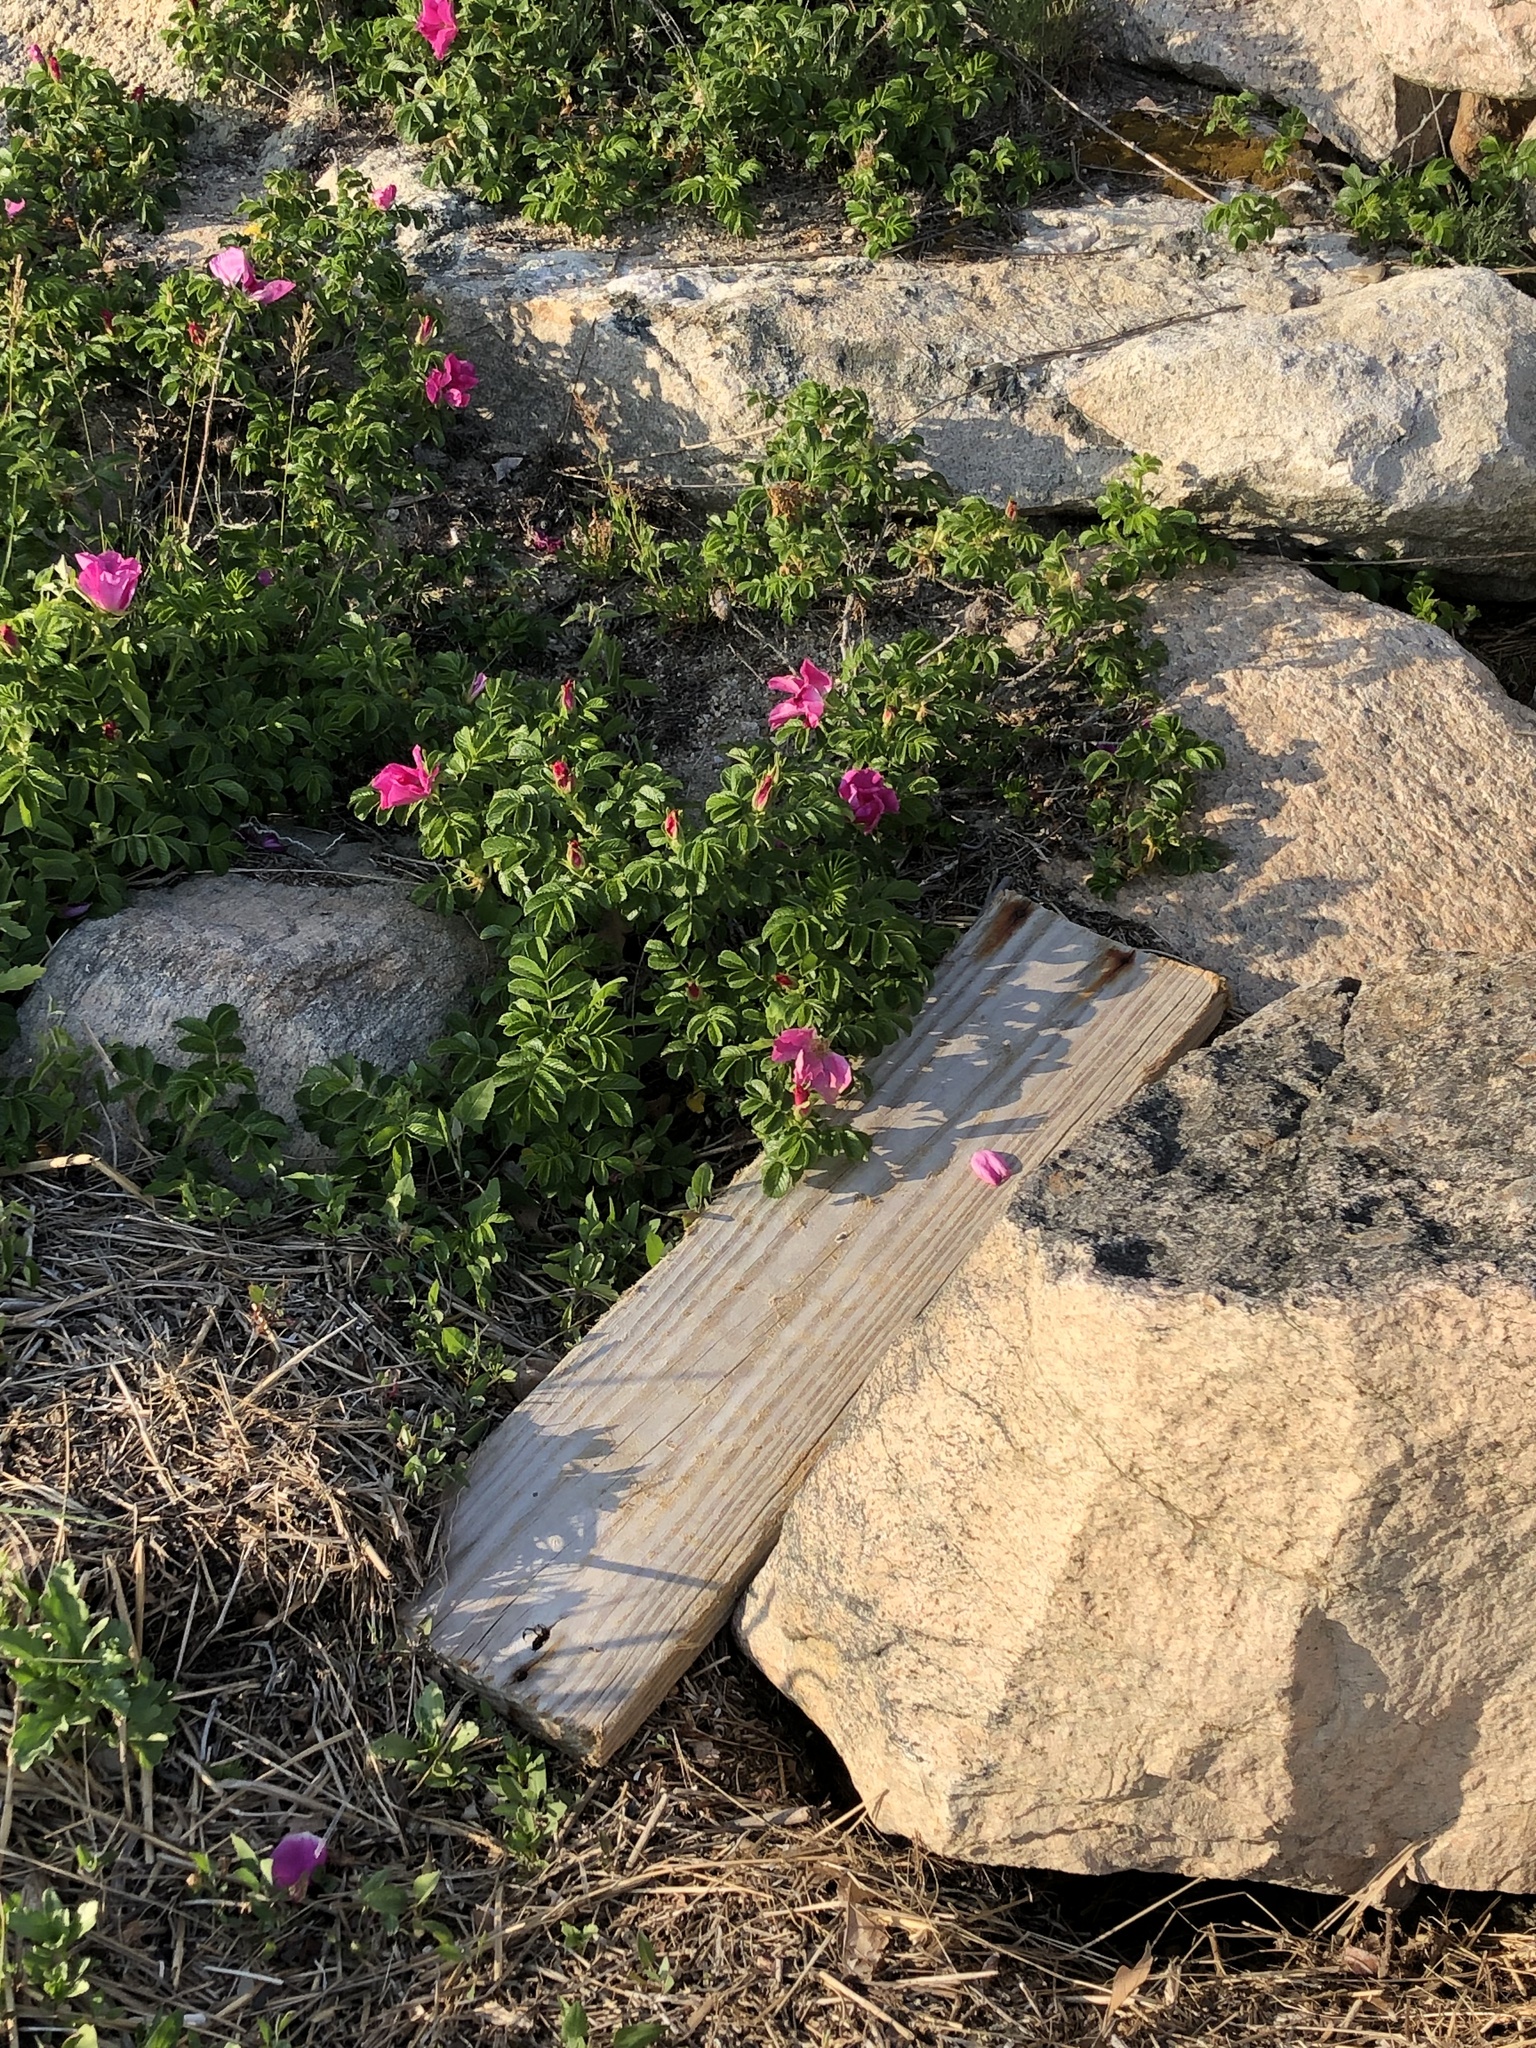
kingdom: Plantae
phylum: Tracheophyta
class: Magnoliopsida
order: Rosales
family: Rosaceae
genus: Rosa
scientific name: Rosa rugosa
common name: Japanese rose
